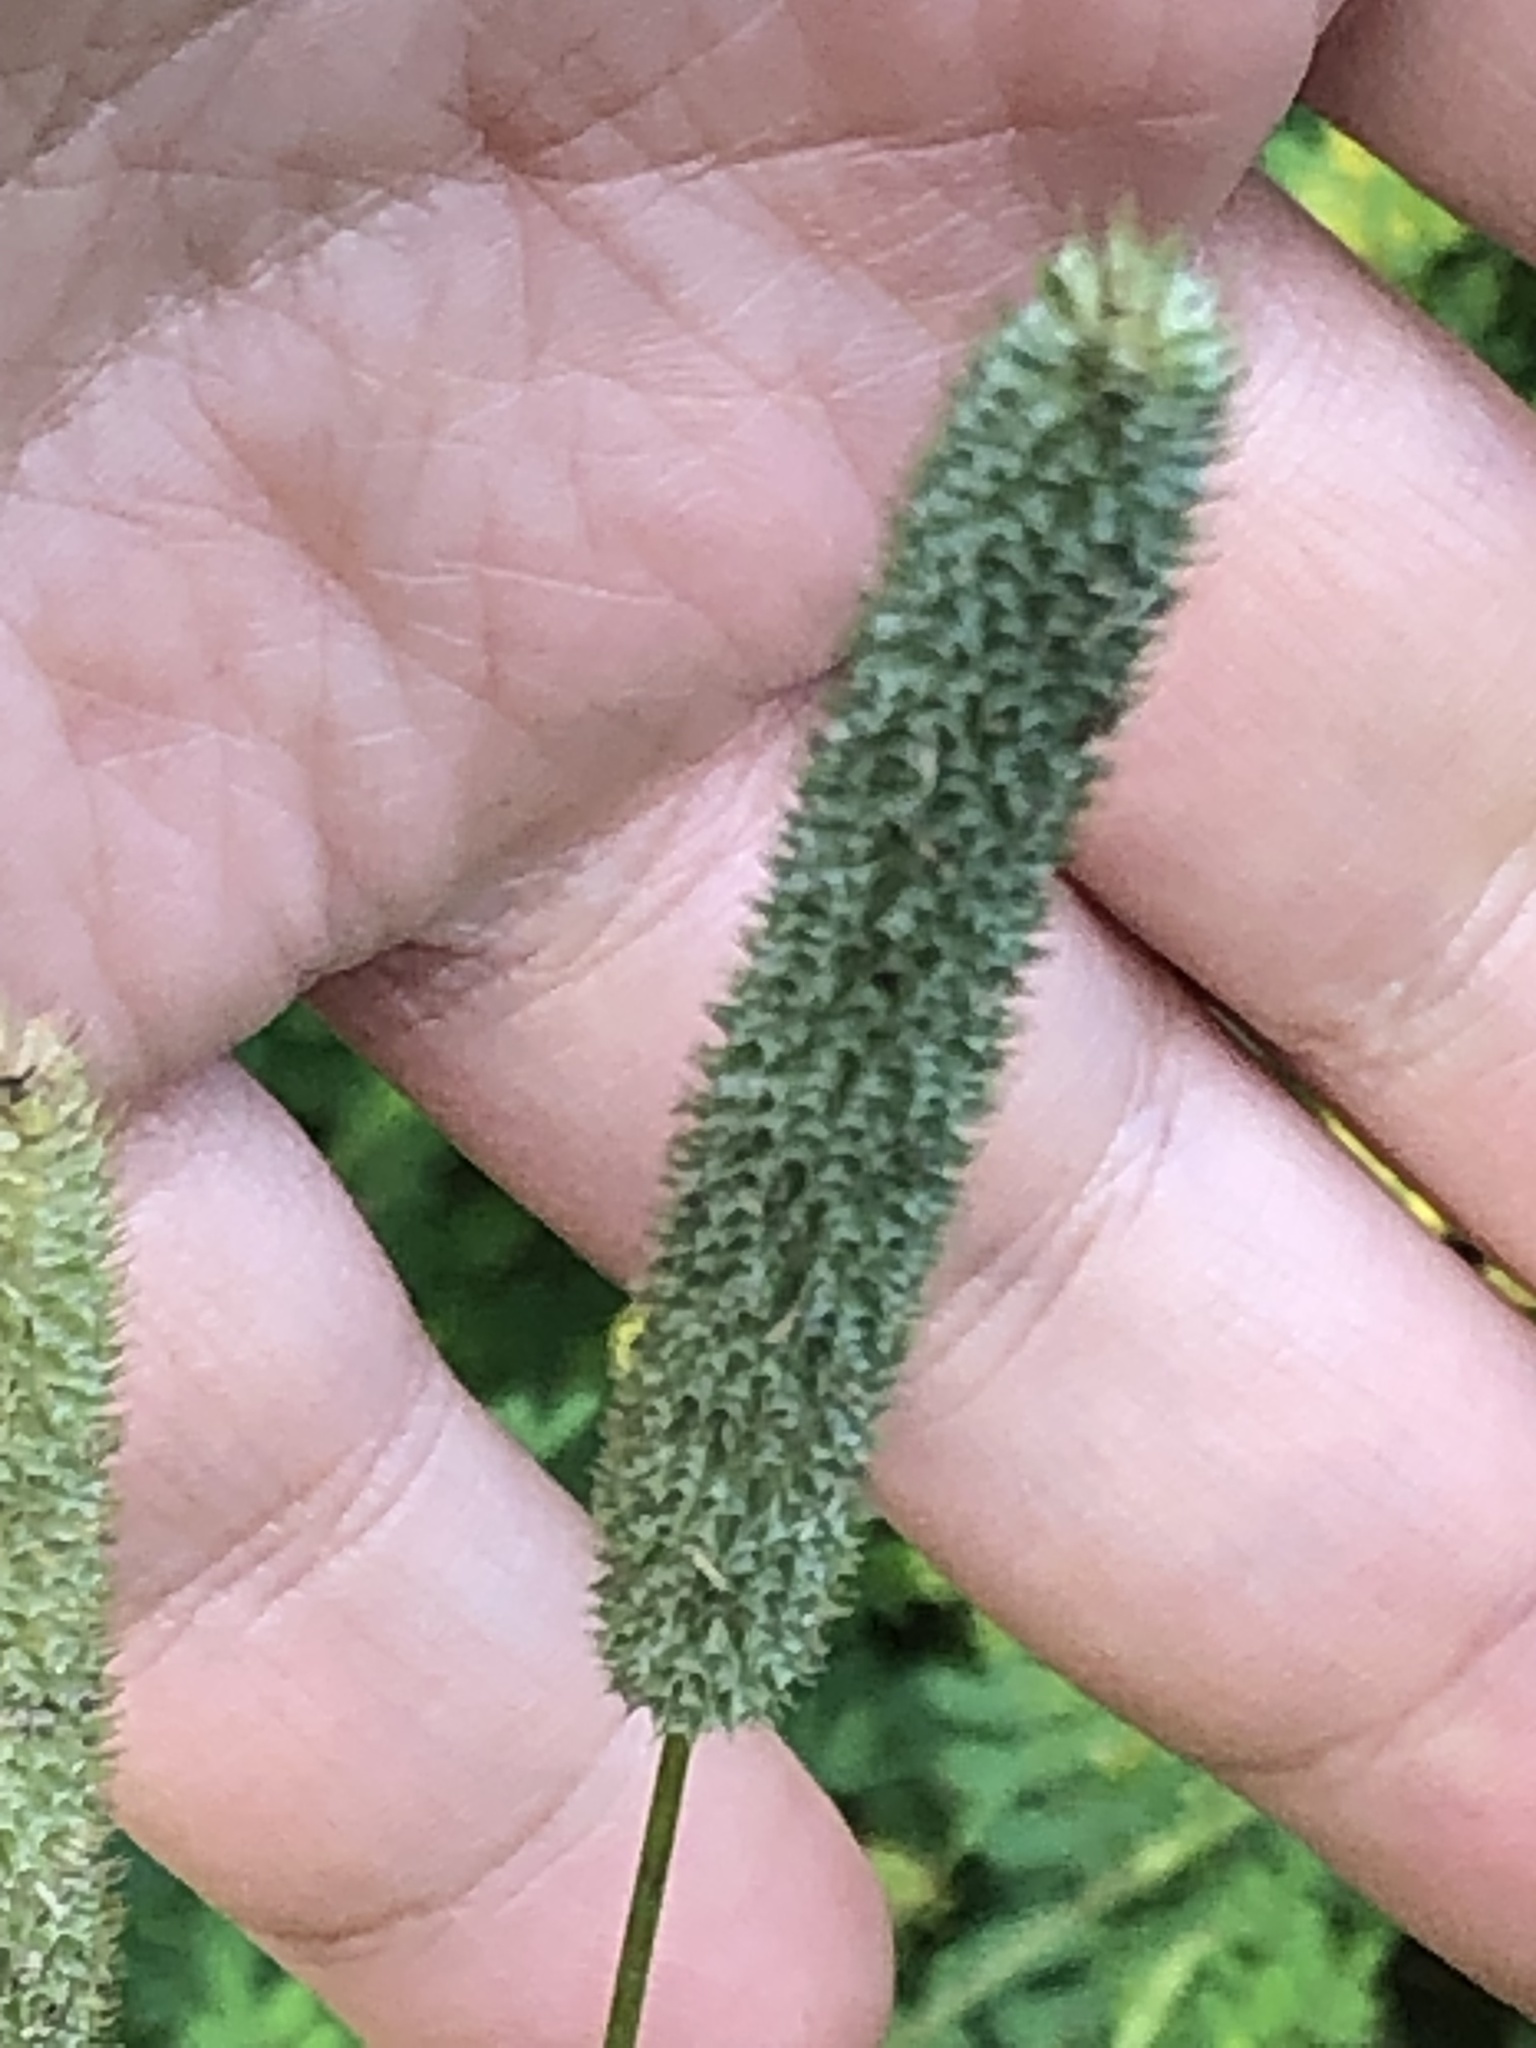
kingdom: Plantae
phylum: Tracheophyta
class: Liliopsida
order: Poales
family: Poaceae
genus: Phleum
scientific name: Phleum pratense
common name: Timothy grass
